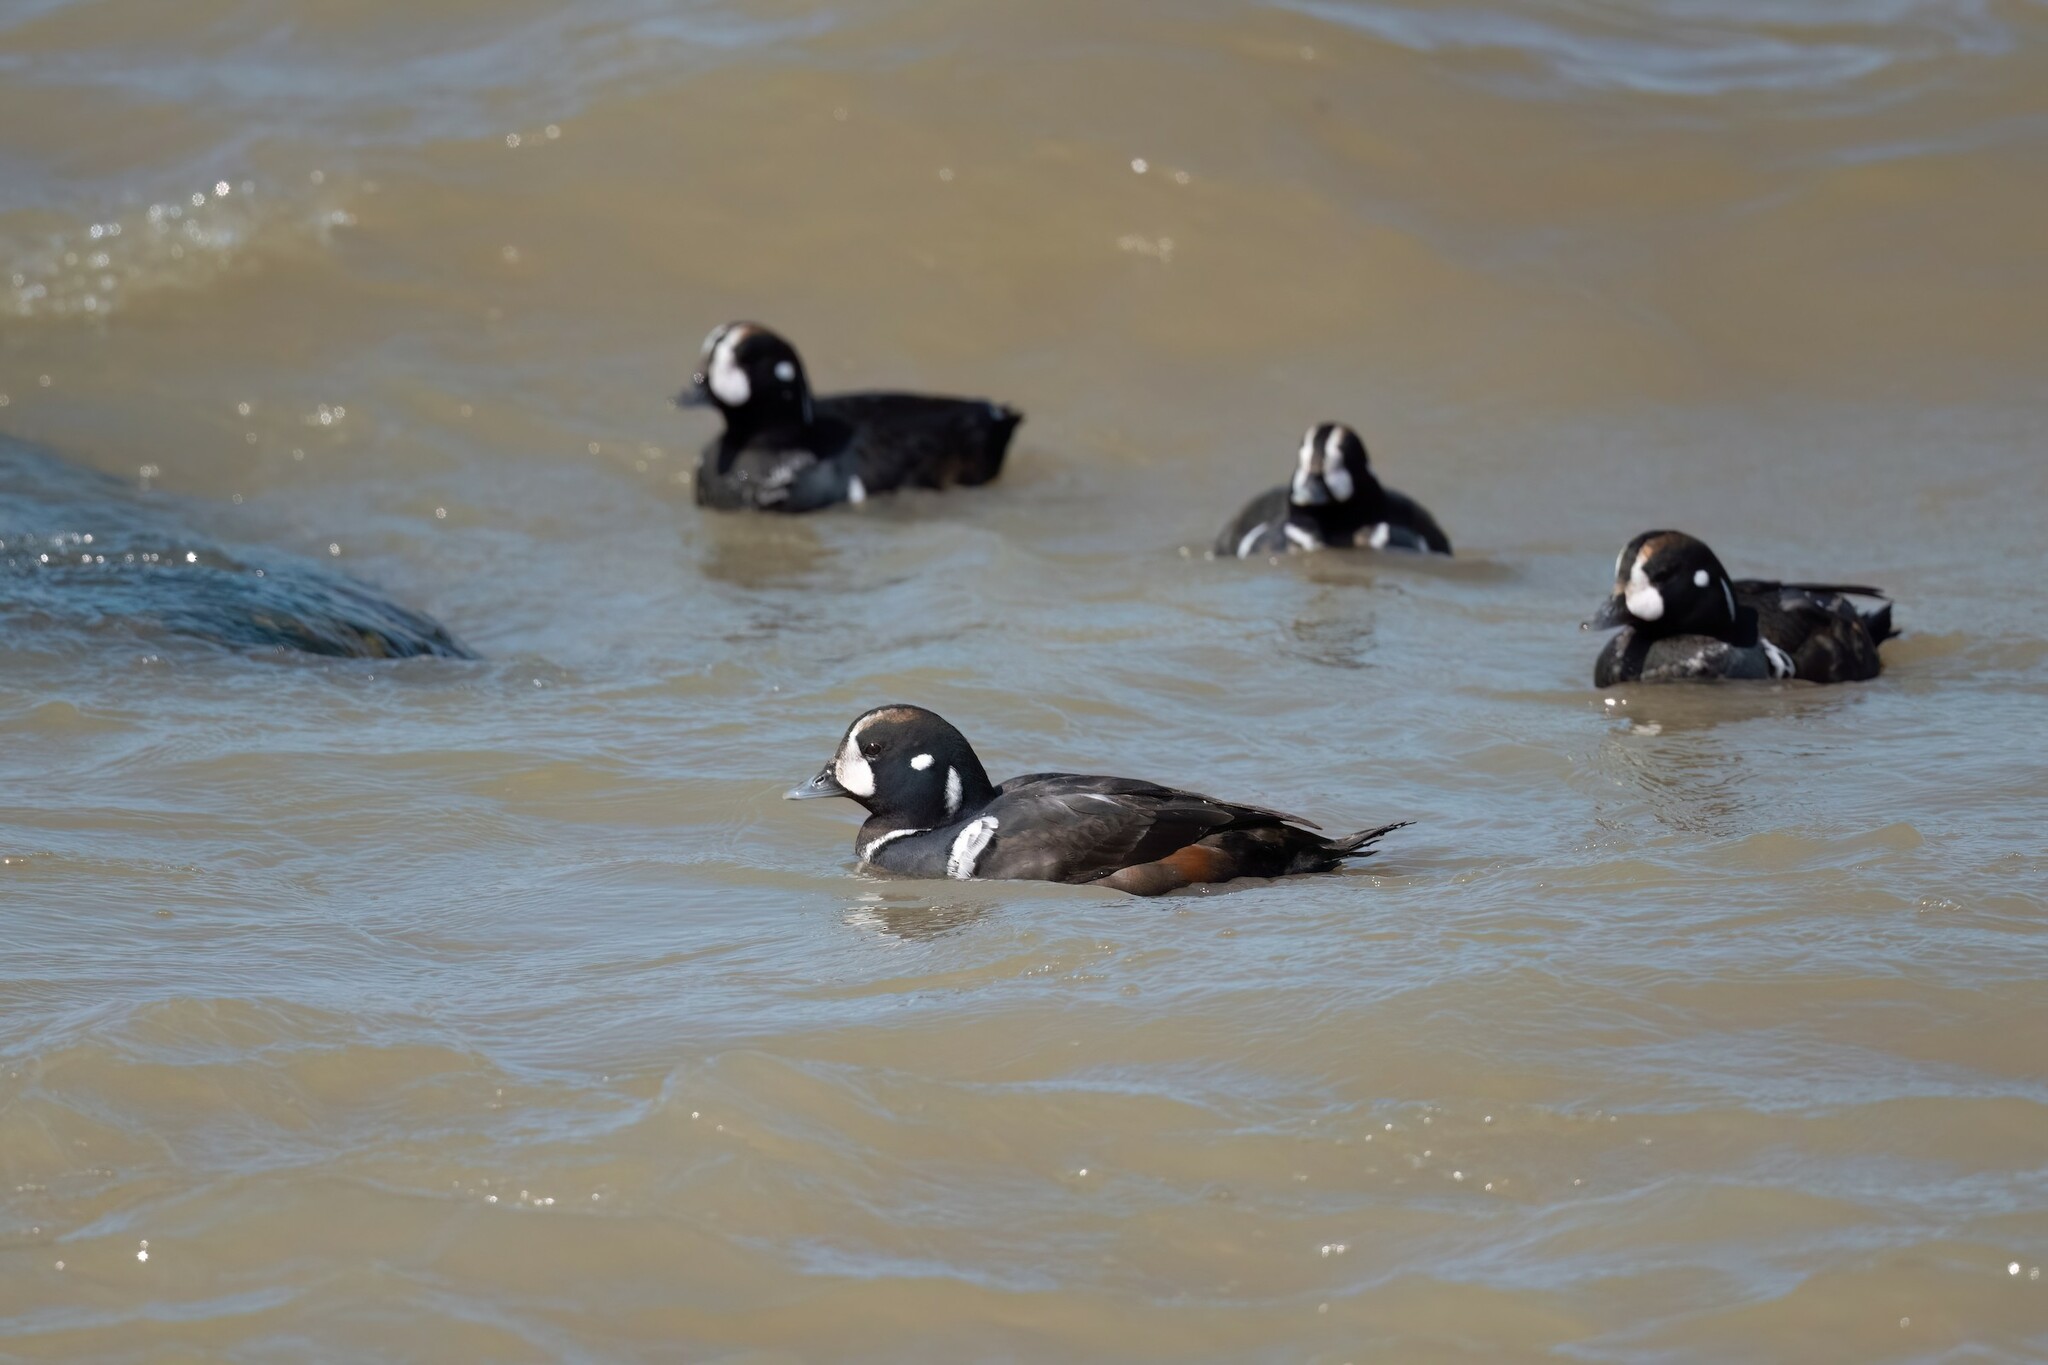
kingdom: Animalia
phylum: Chordata
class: Aves
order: Anseriformes
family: Anatidae
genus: Histrionicus
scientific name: Histrionicus histrionicus
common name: Harlequin duck
